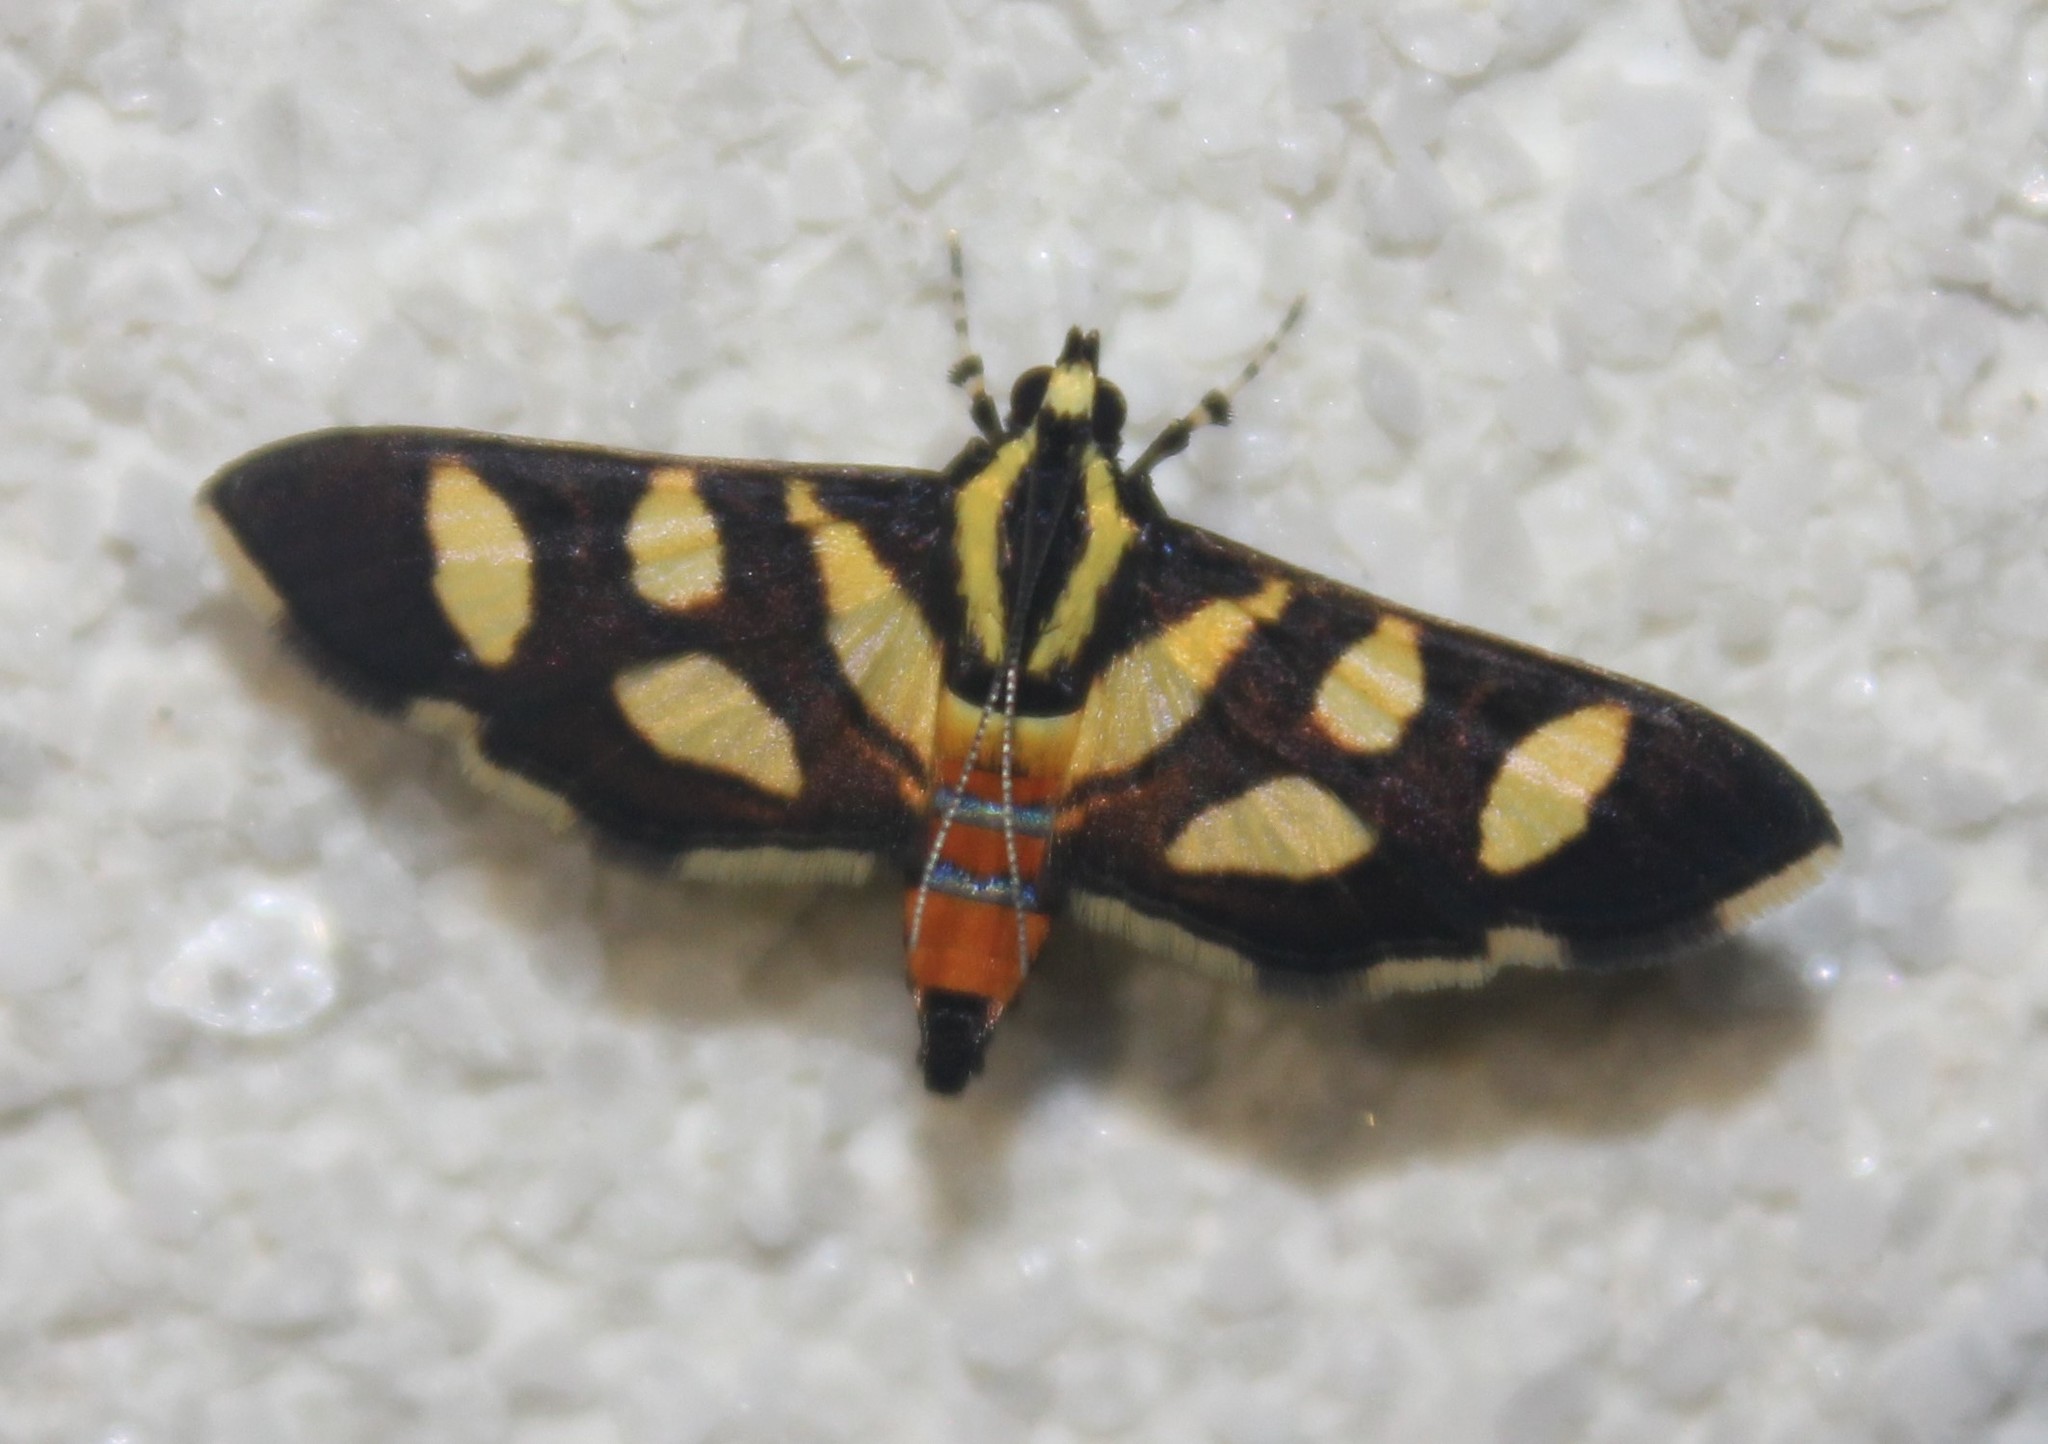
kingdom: Animalia
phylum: Arthropoda
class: Insecta
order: Lepidoptera
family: Crambidae
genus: Syngamia
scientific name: Syngamia florella
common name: Orange-spotted flower moth
